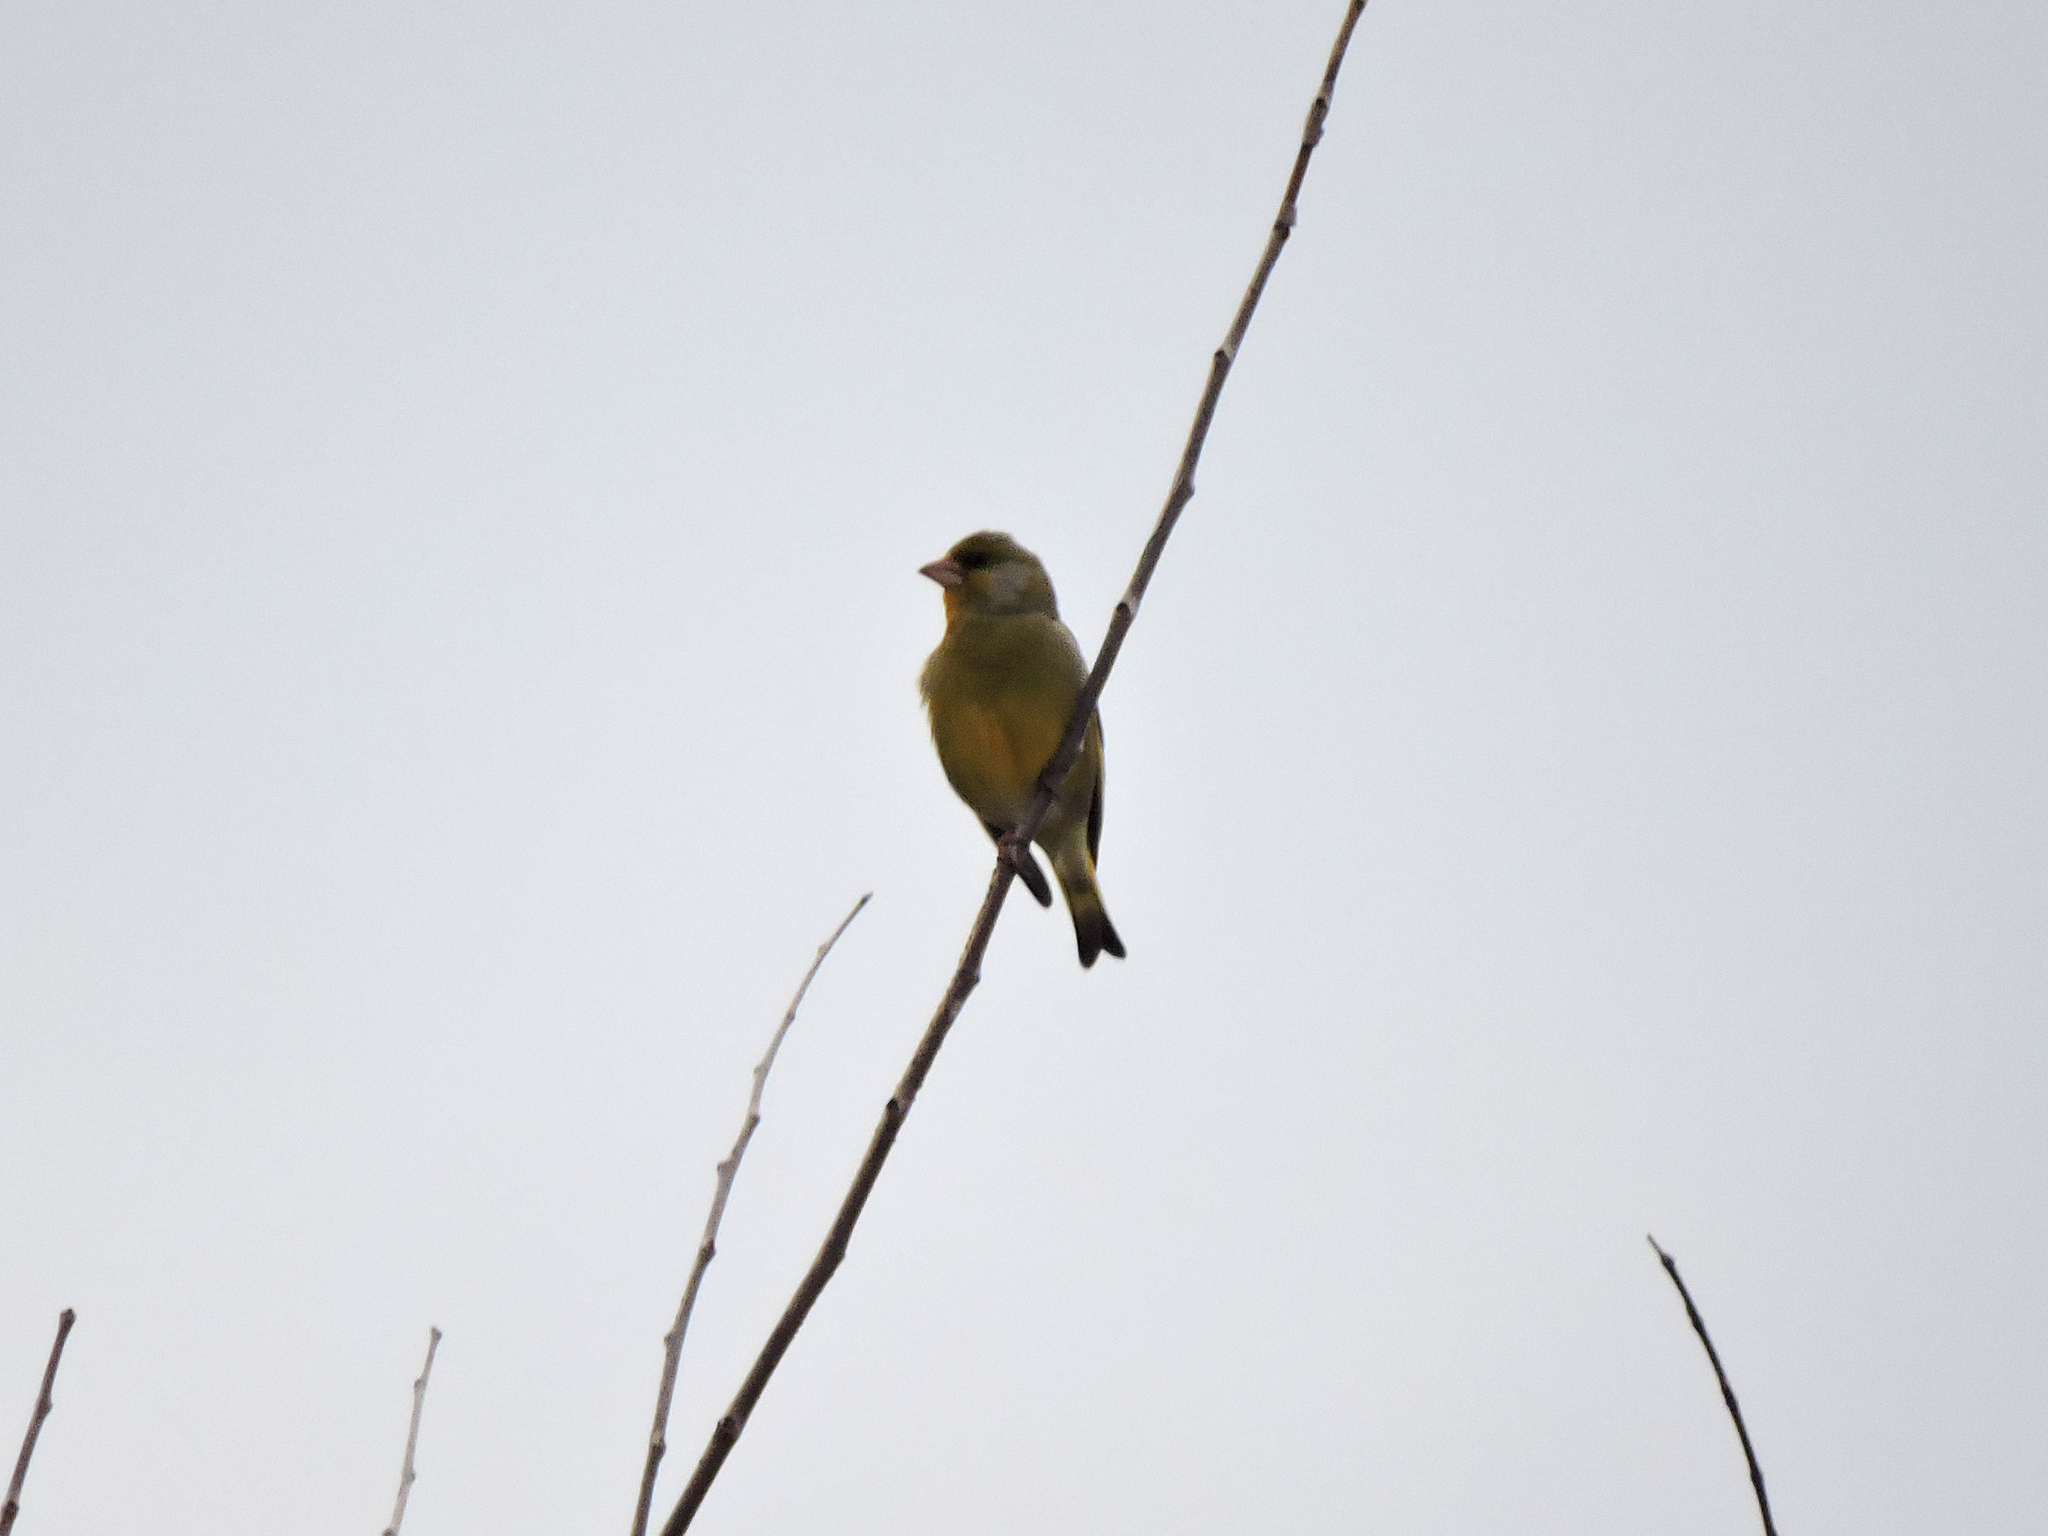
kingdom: Plantae
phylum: Tracheophyta
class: Liliopsida
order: Poales
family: Poaceae
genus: Chloris
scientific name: Chloris chloris
